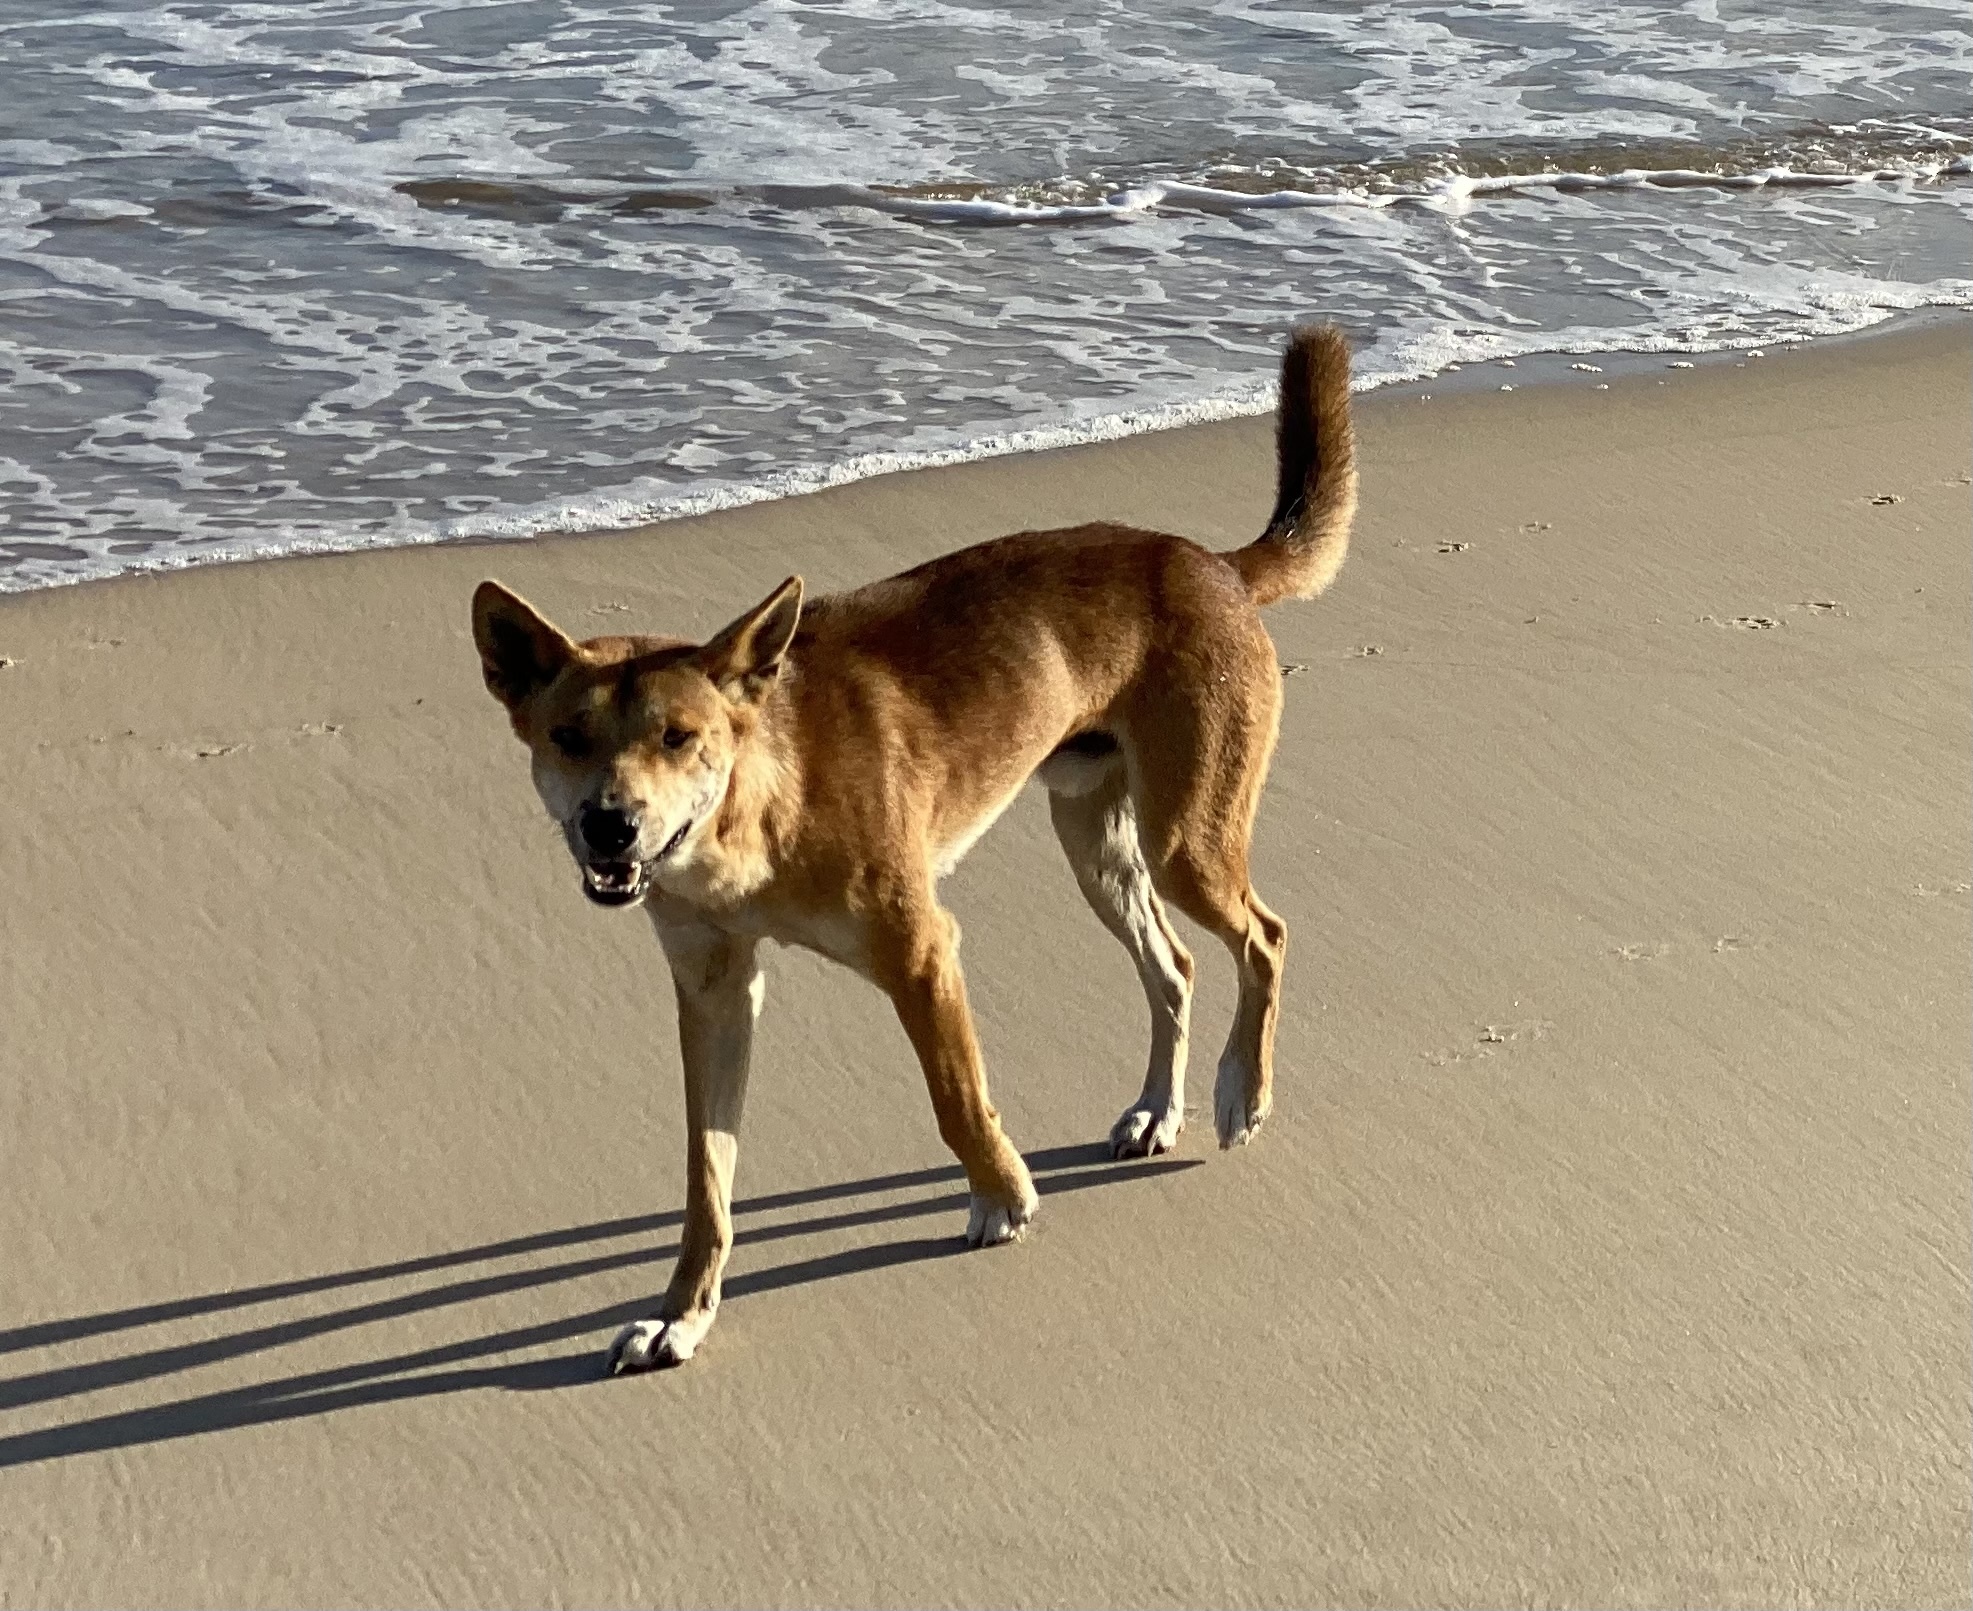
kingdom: Animalia
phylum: Chordata
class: Mammalia
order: Carnivora
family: Canidae
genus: Canis
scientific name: Canis lupus
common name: Gray wolf
